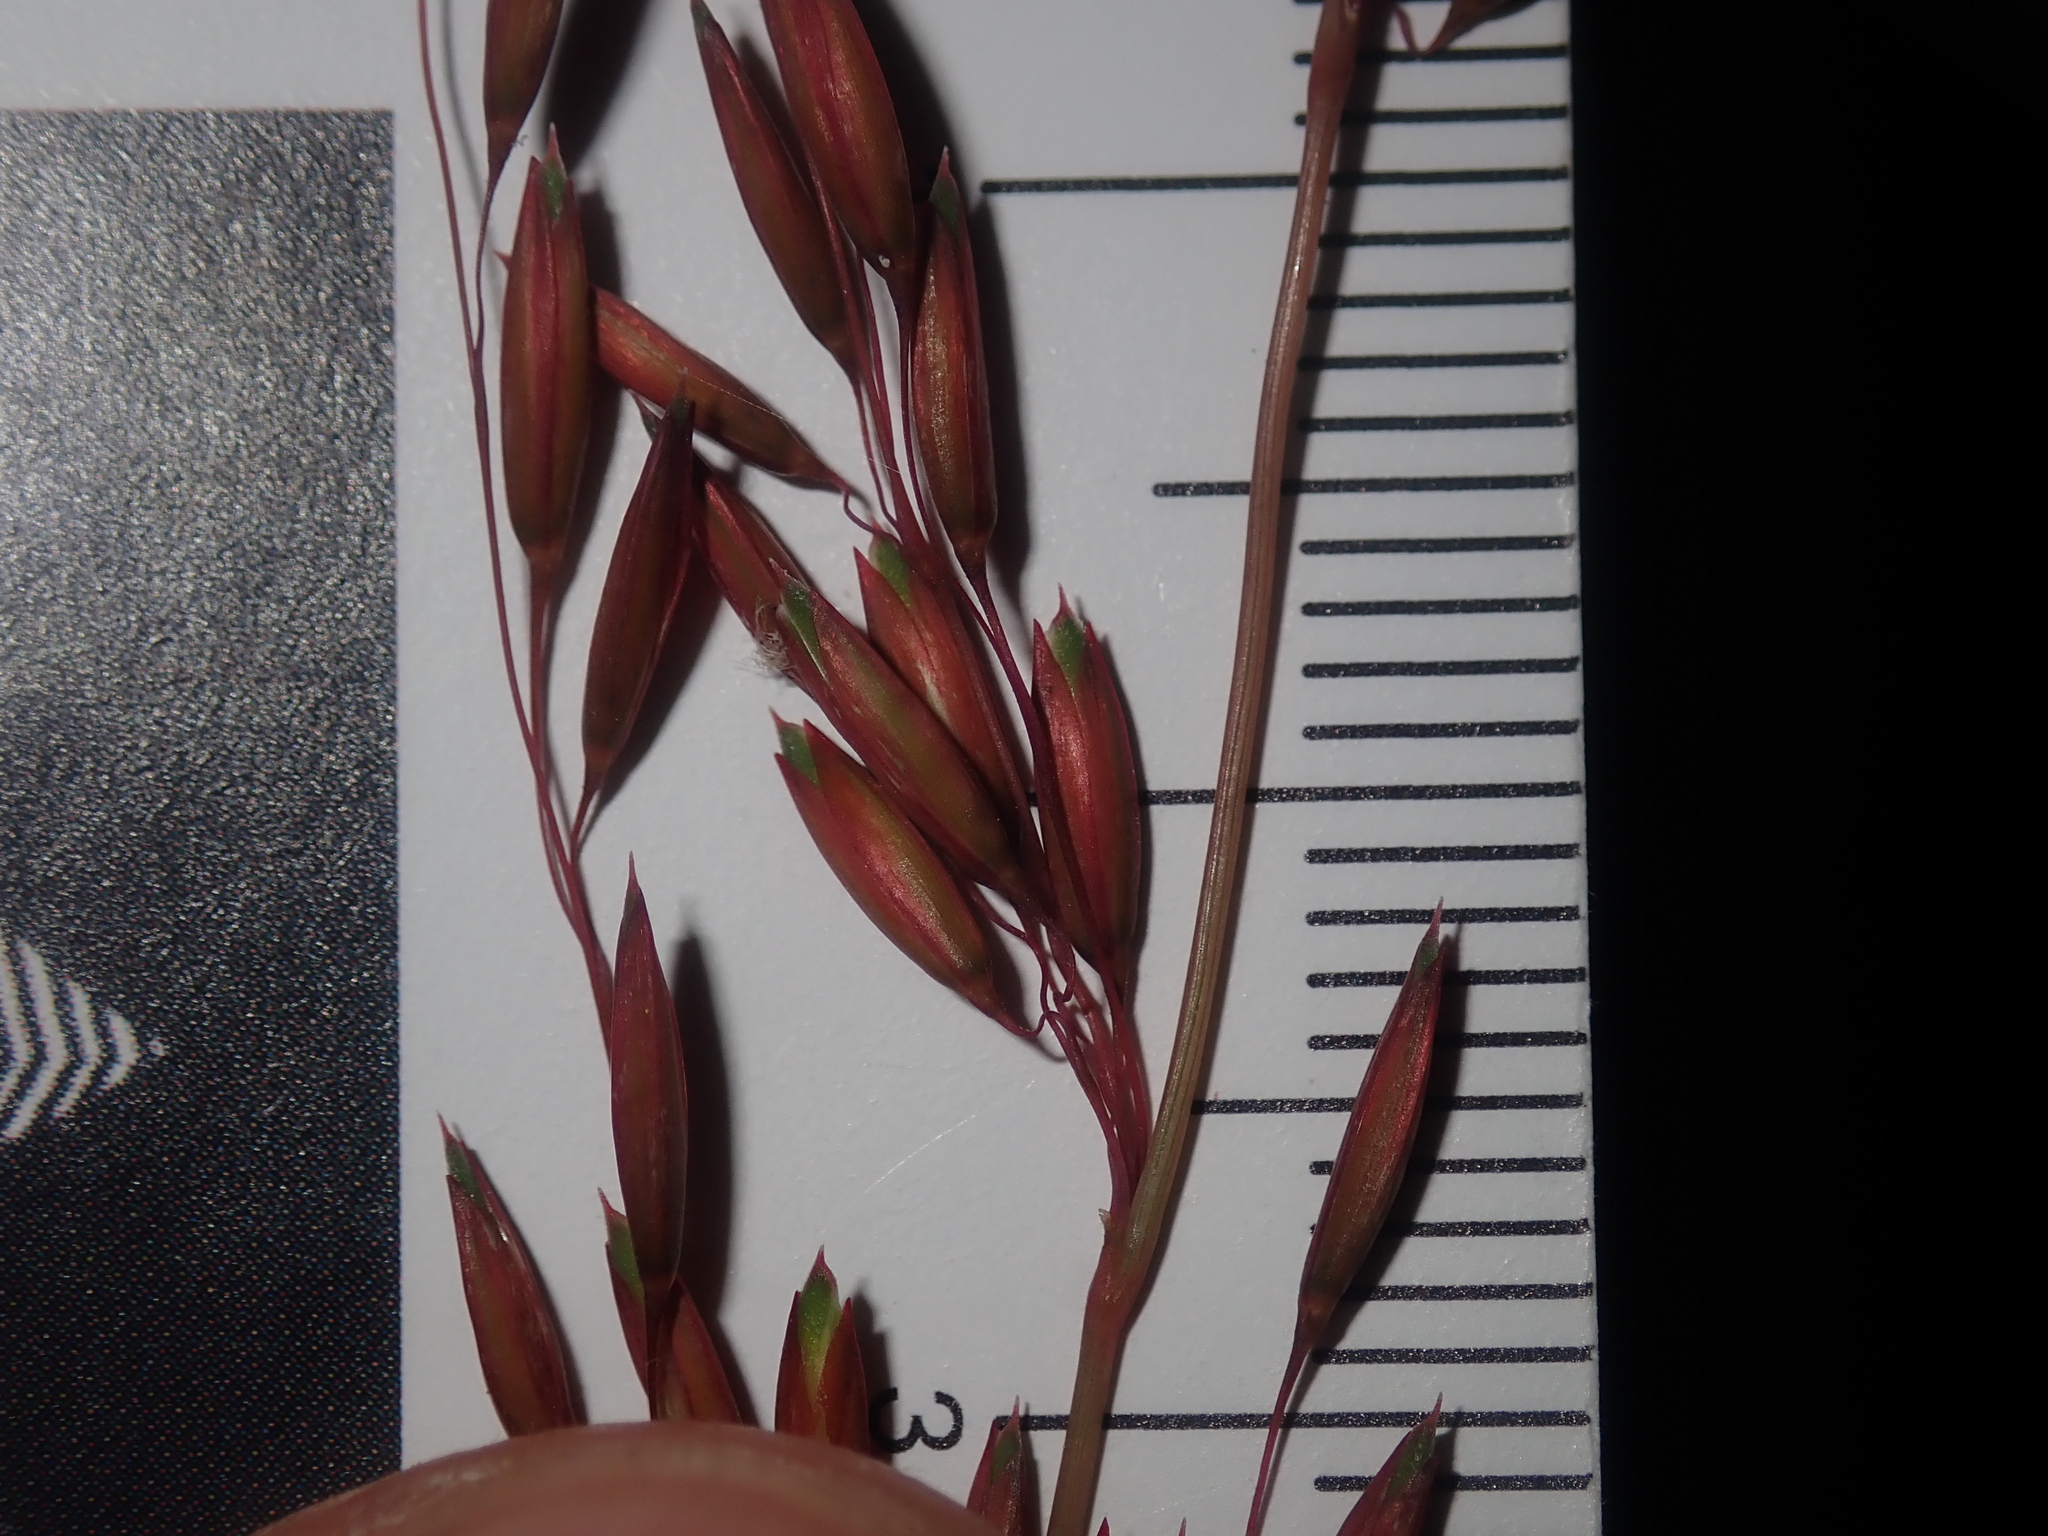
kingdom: Plantae
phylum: Tracheophyta
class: Liliopsida
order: Poales
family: Poaceae
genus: Ehrharta
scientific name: Ehrharta calycina
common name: Perennial veldtgrass
